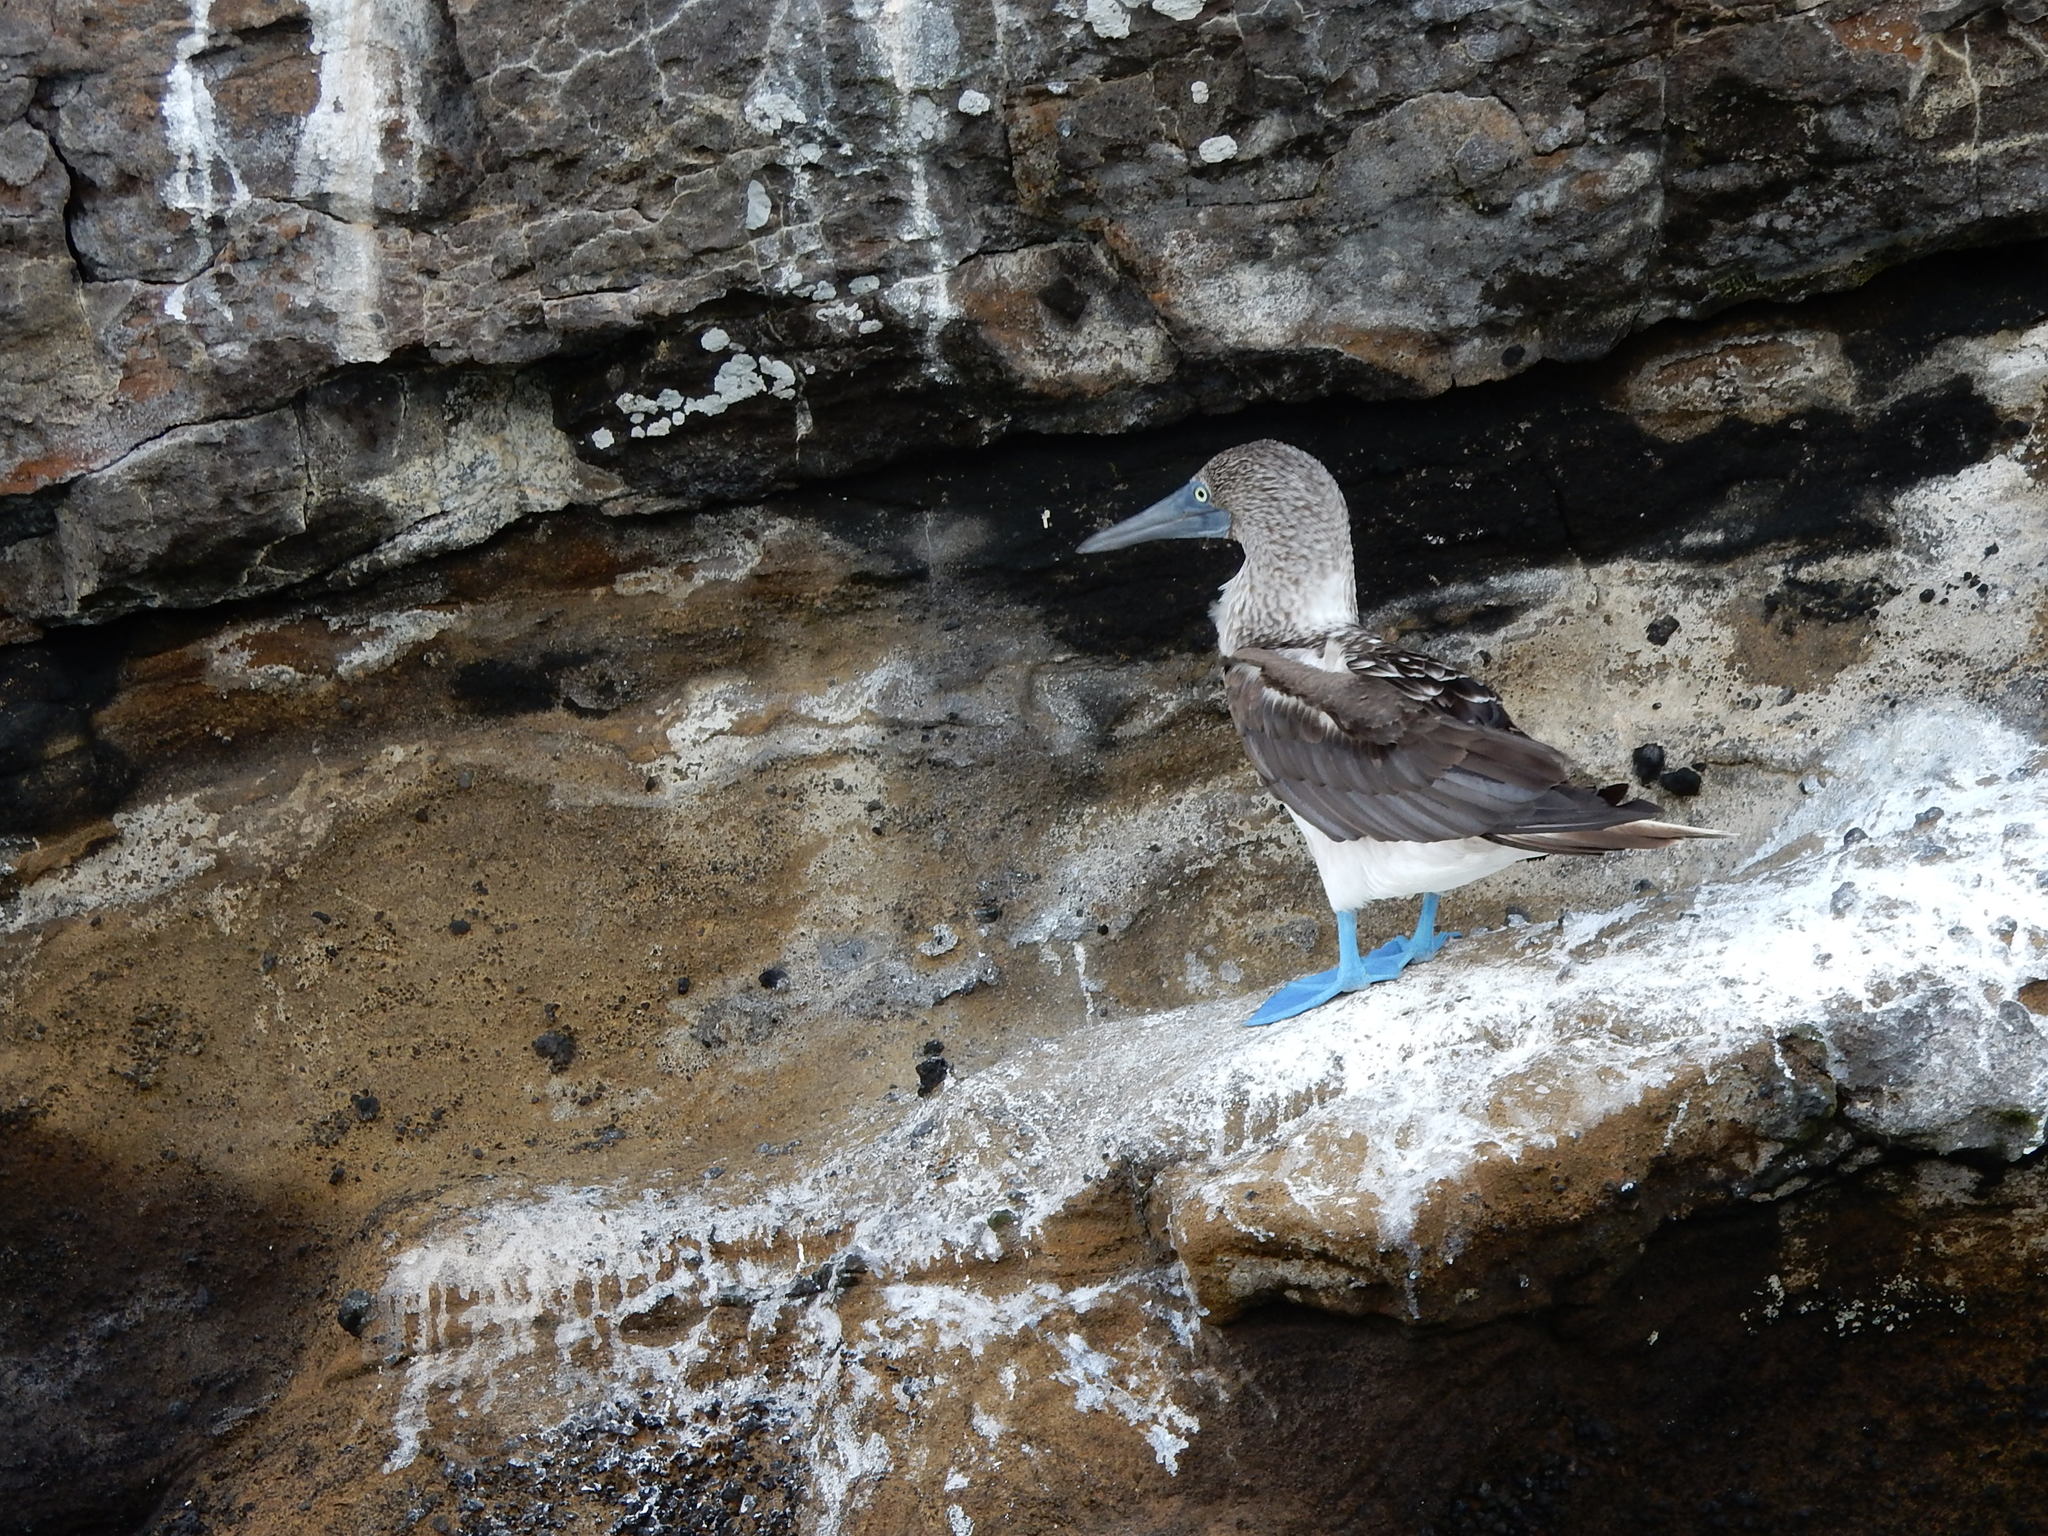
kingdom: Animalia
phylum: Chordata
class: Aves
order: Suliformes
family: Sulidae
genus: Sula
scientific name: Sula nebouxii
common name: Blue-footed booby
